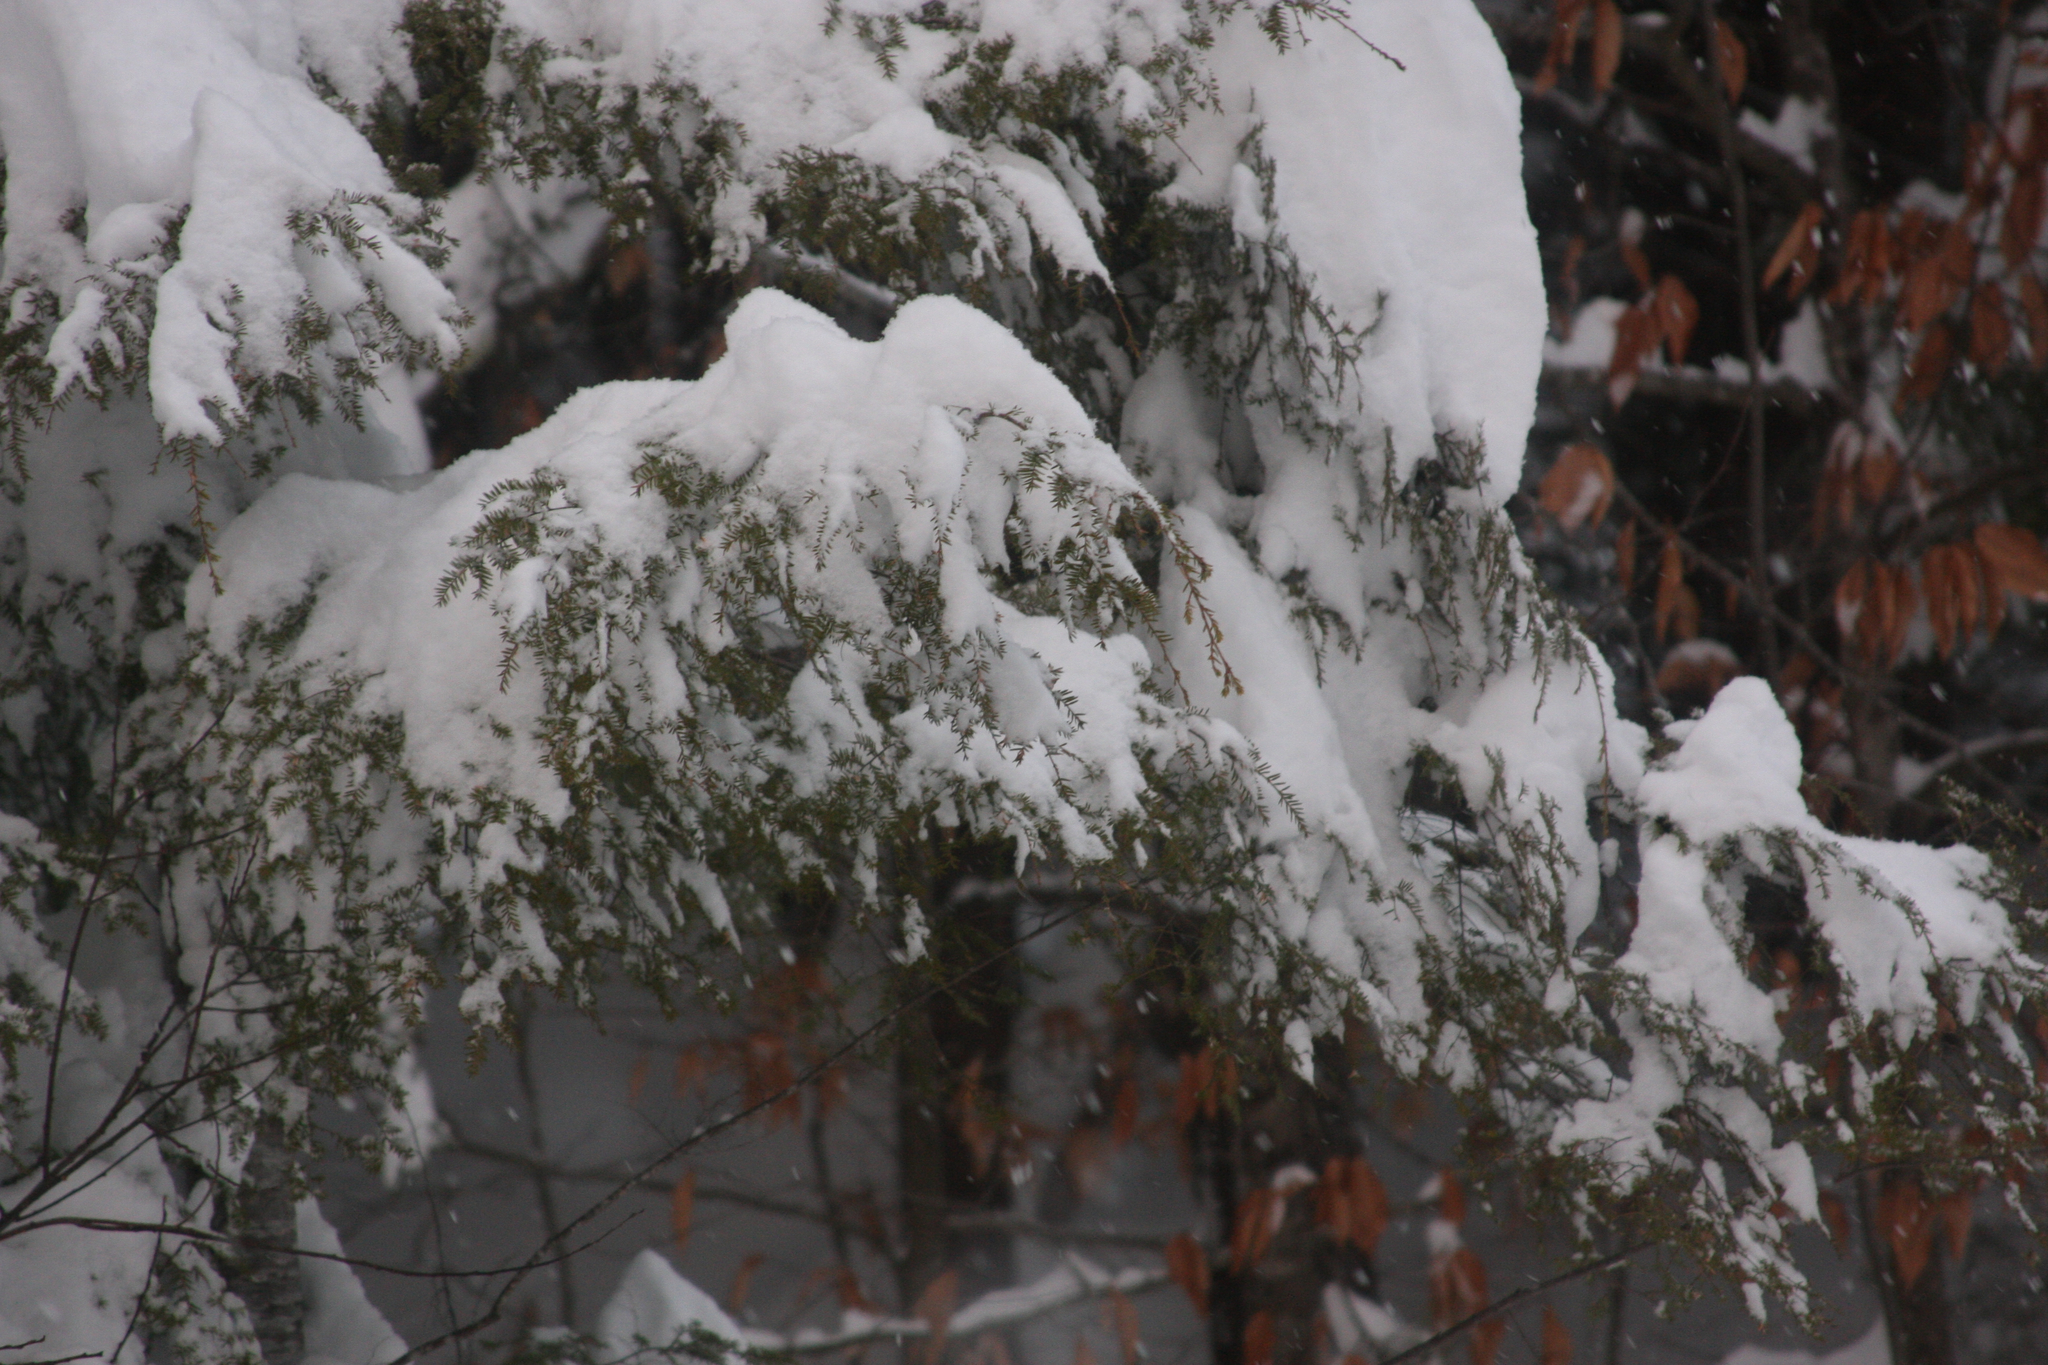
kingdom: Plantae
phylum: Tracheophyta
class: Pinopsida
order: Pinales
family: Pinaceae
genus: Tsuga
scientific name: Tsuga canadensis
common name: Eastern hemlock
